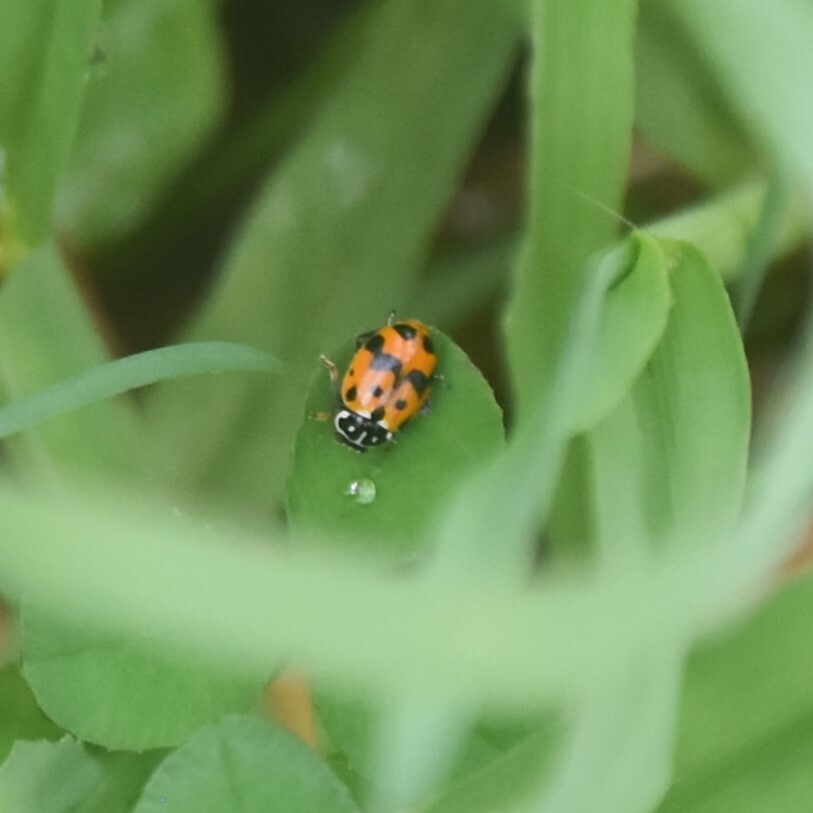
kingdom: Animalia
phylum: Arthropoda
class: Insecta
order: Coleoptera
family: Coccinellidae
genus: Hippodamia
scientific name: Hippodamia variegata
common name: Ladybird beetle
